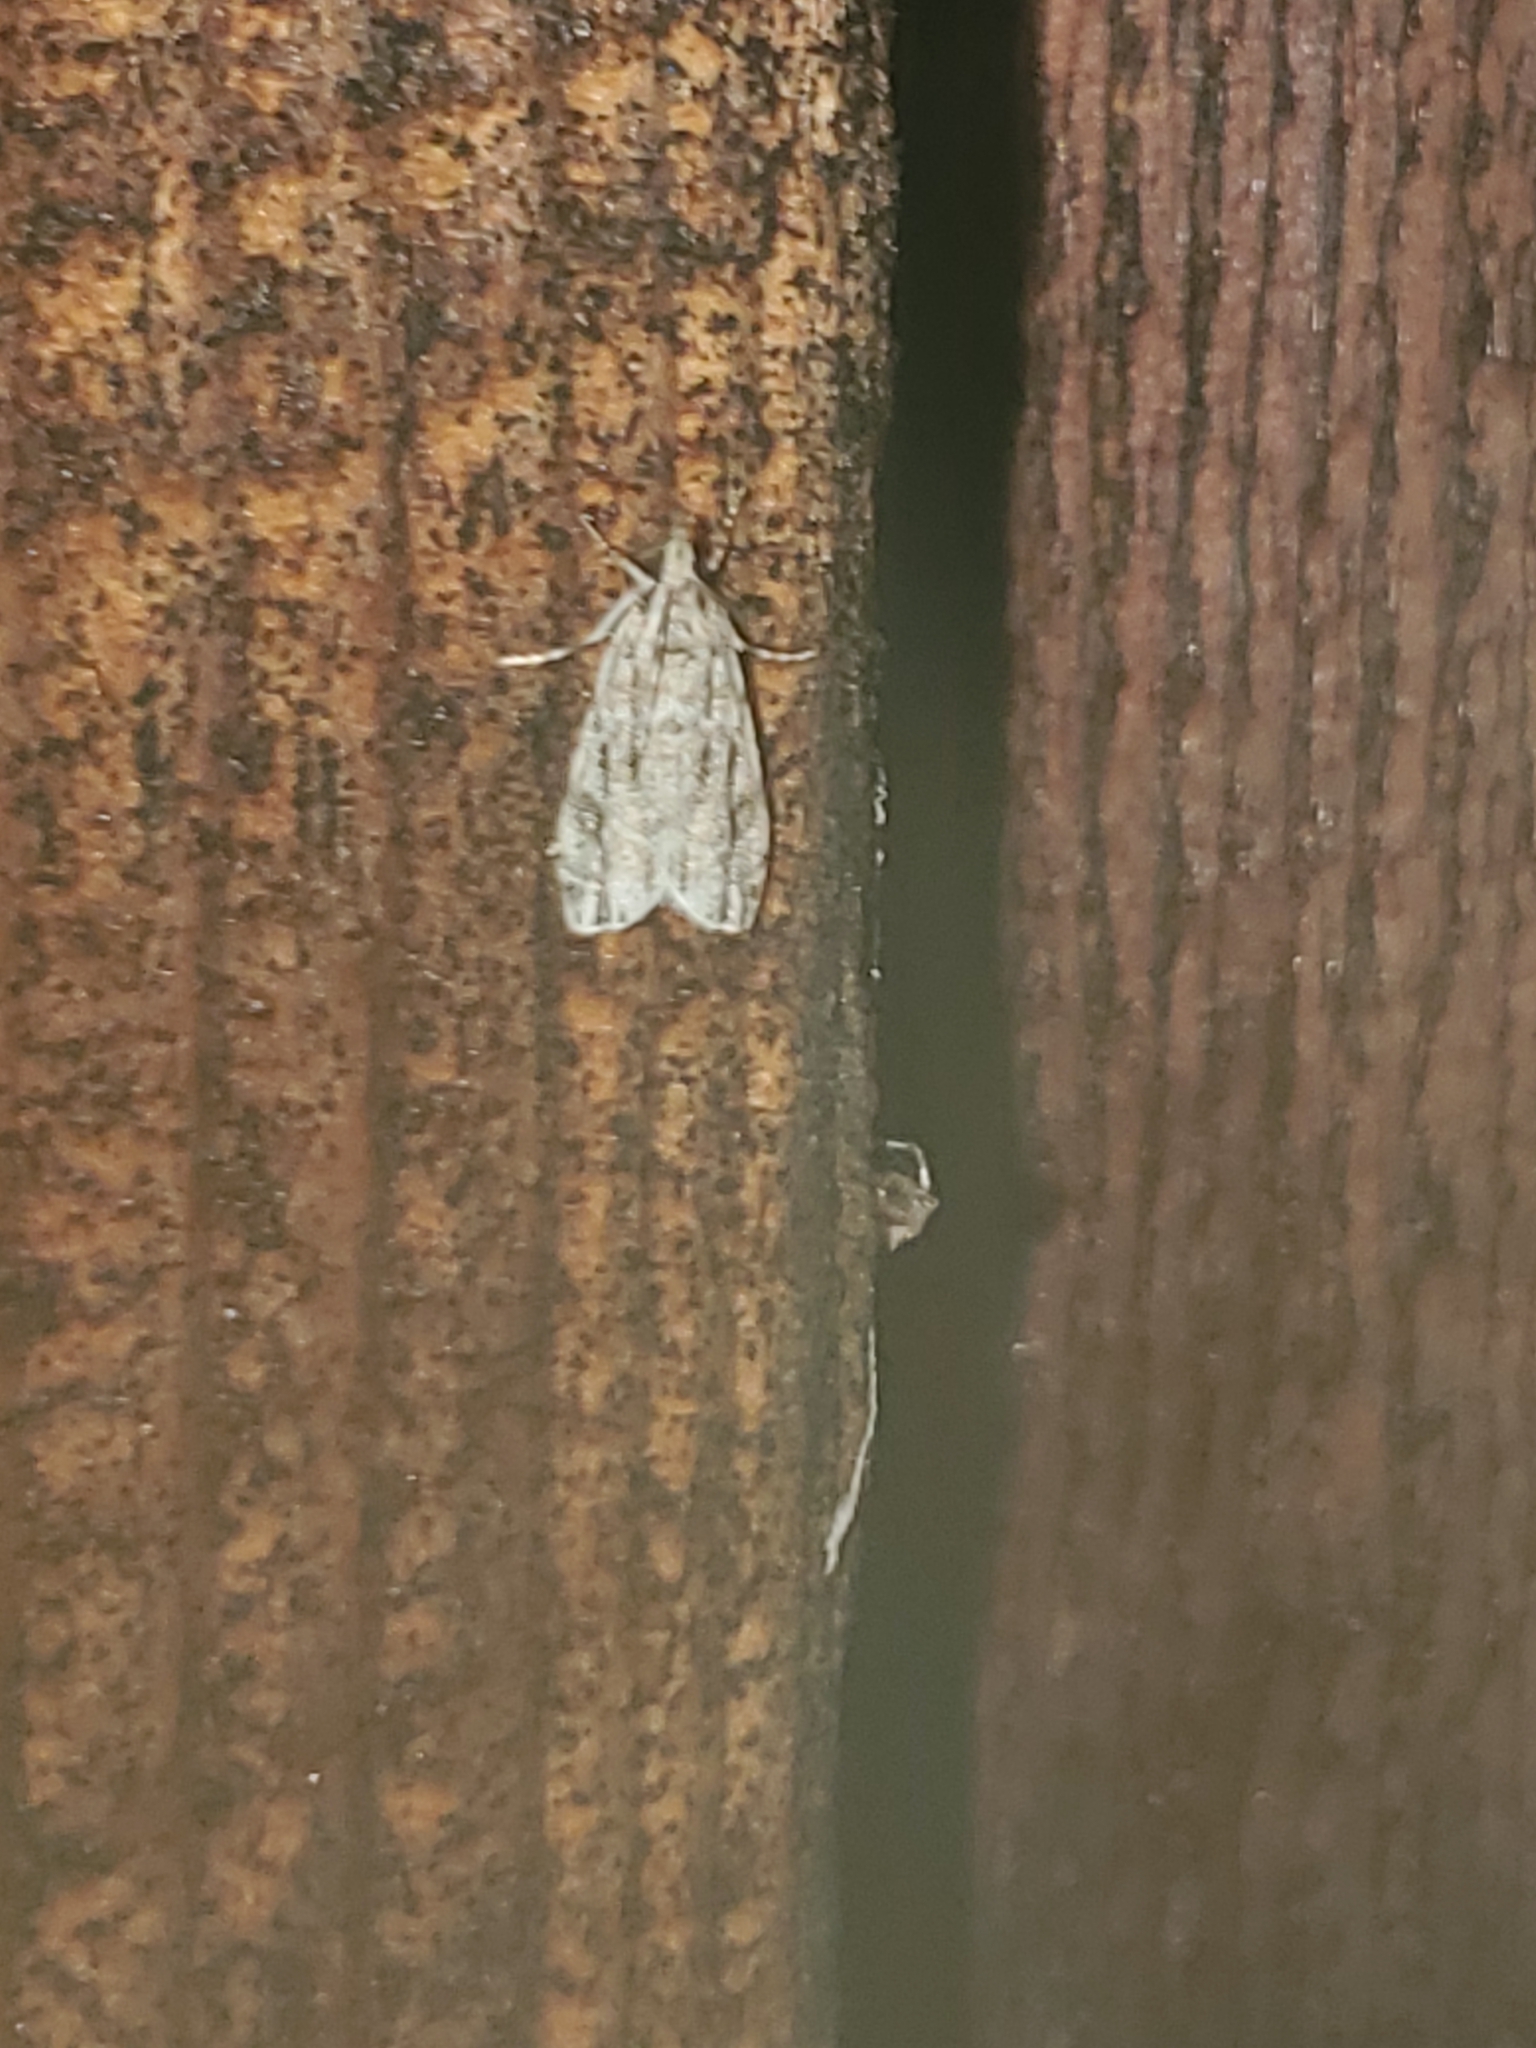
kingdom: Animalia
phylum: Arthropoda
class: Insecta
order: Lepidoptera
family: Crambidae
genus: Eudonia
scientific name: Eudonia strigalis
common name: Striped eudonia moth
